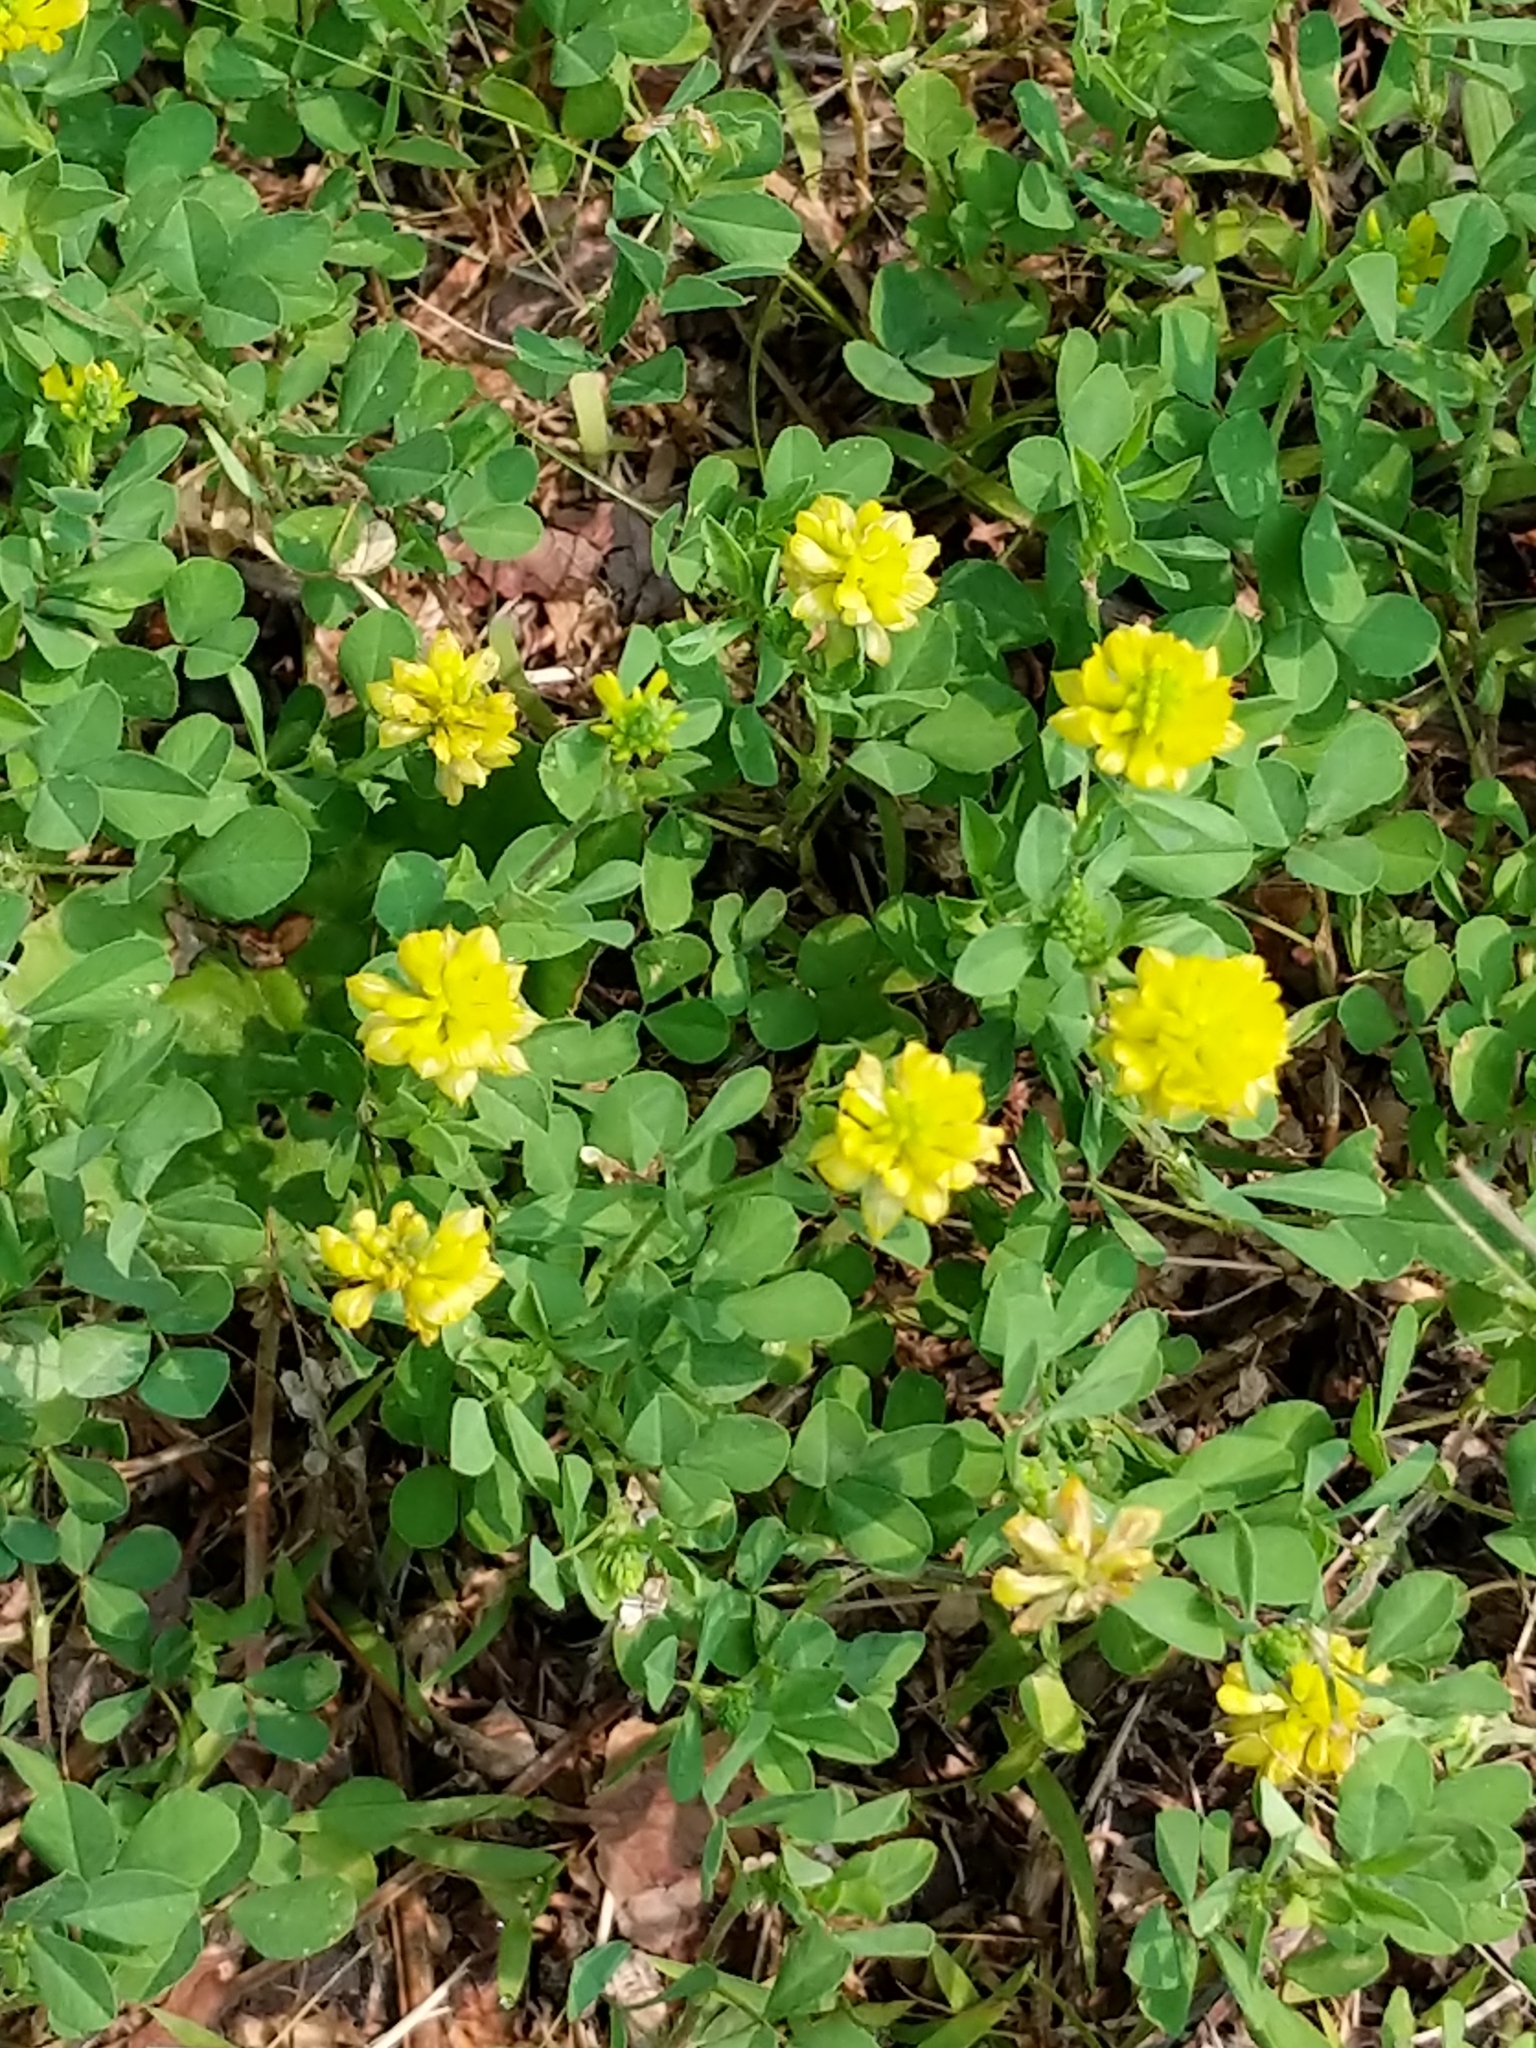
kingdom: Plantae
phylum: Tracheophyta
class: Magnoliopsida
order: Fabales
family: Fabaceae
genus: Trifolium
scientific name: Trifolium campestre
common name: Field clover
